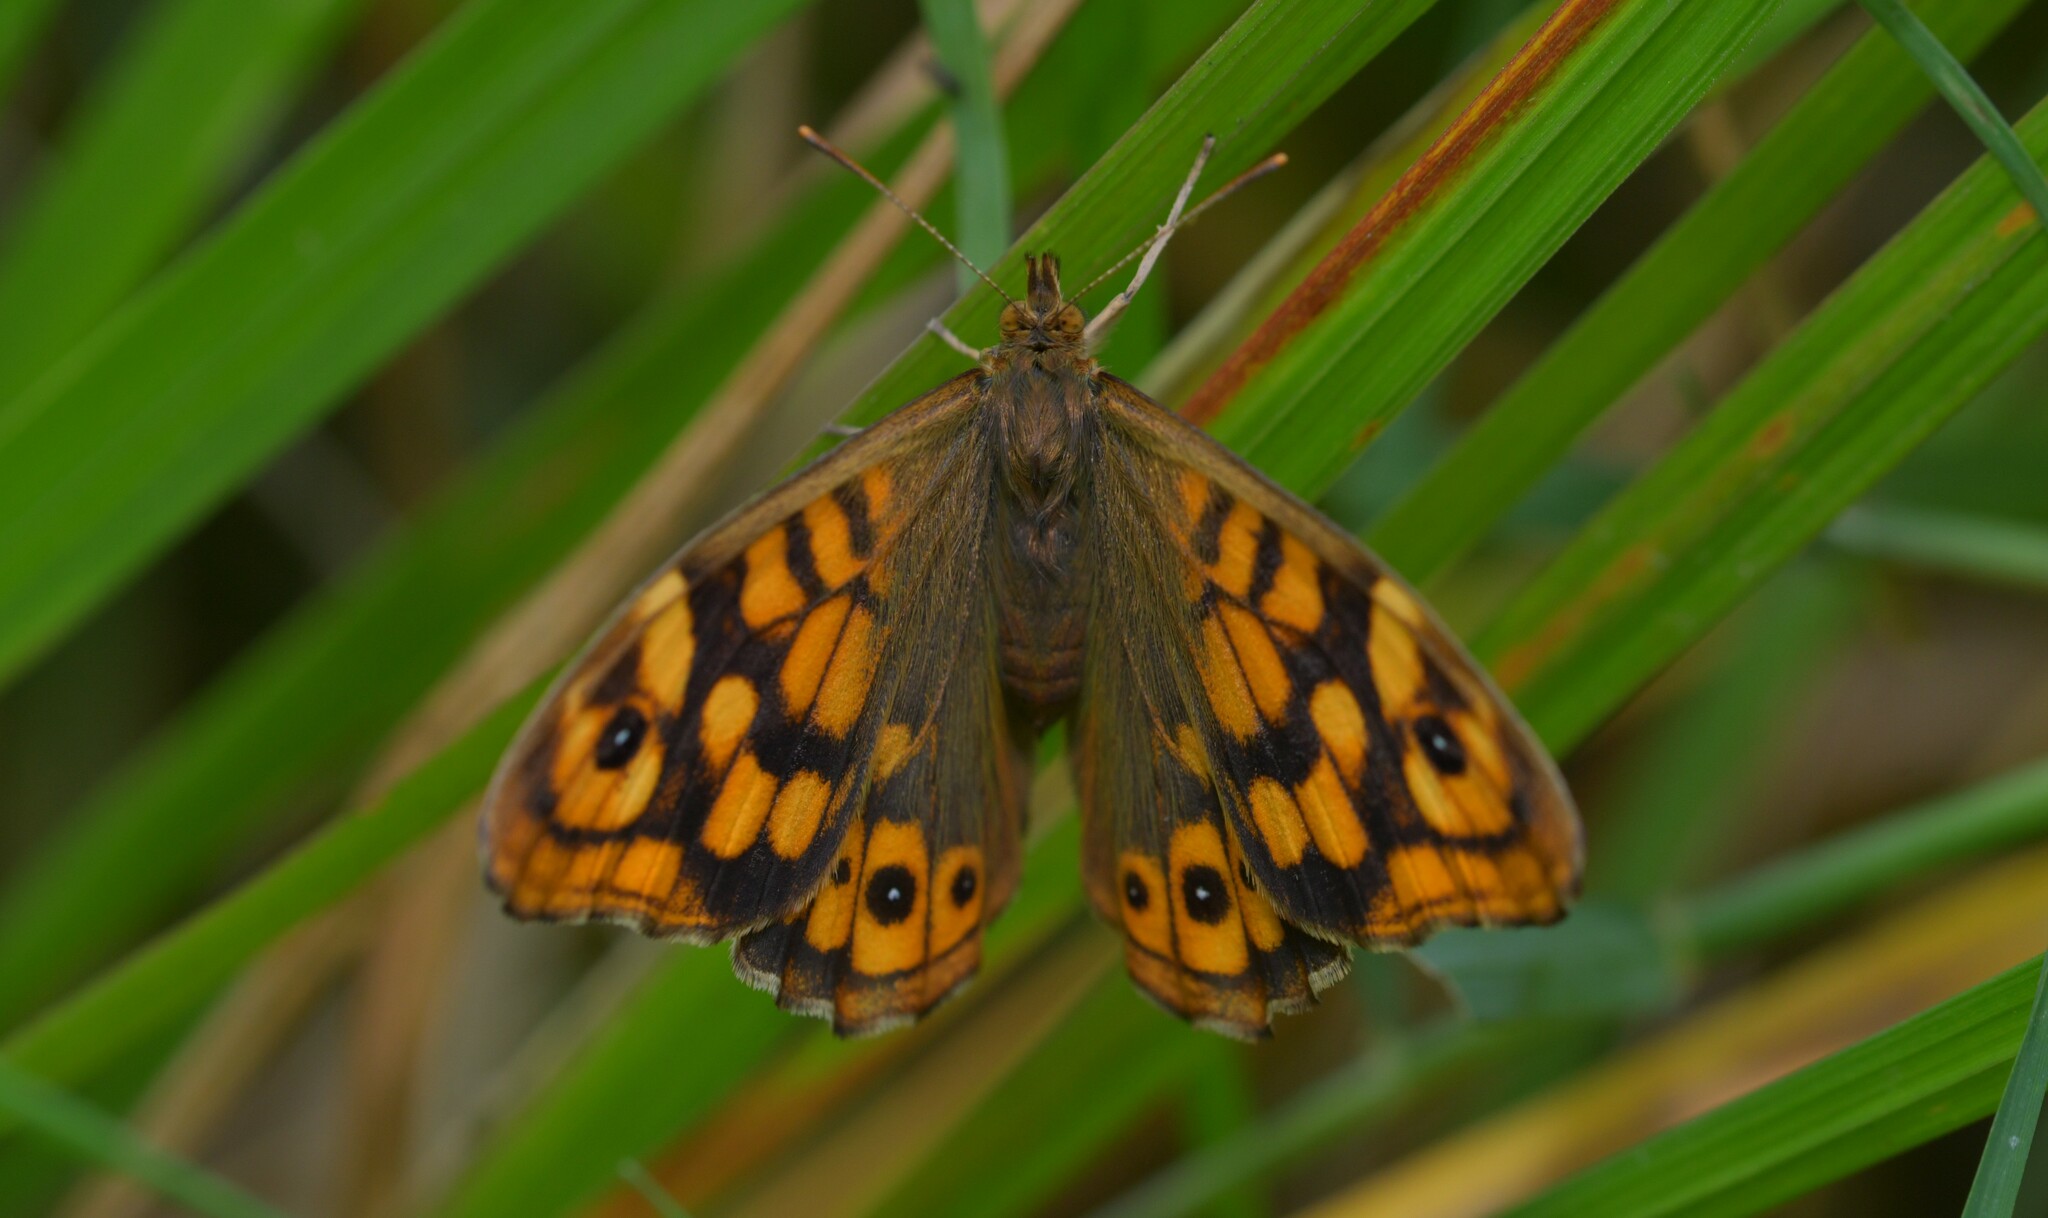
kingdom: Animalia
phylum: Arthropoda
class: Insecta
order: Lepidoptera
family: Nymphalidae
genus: Pararge
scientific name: Pararge aegeria
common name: Speckled wood
